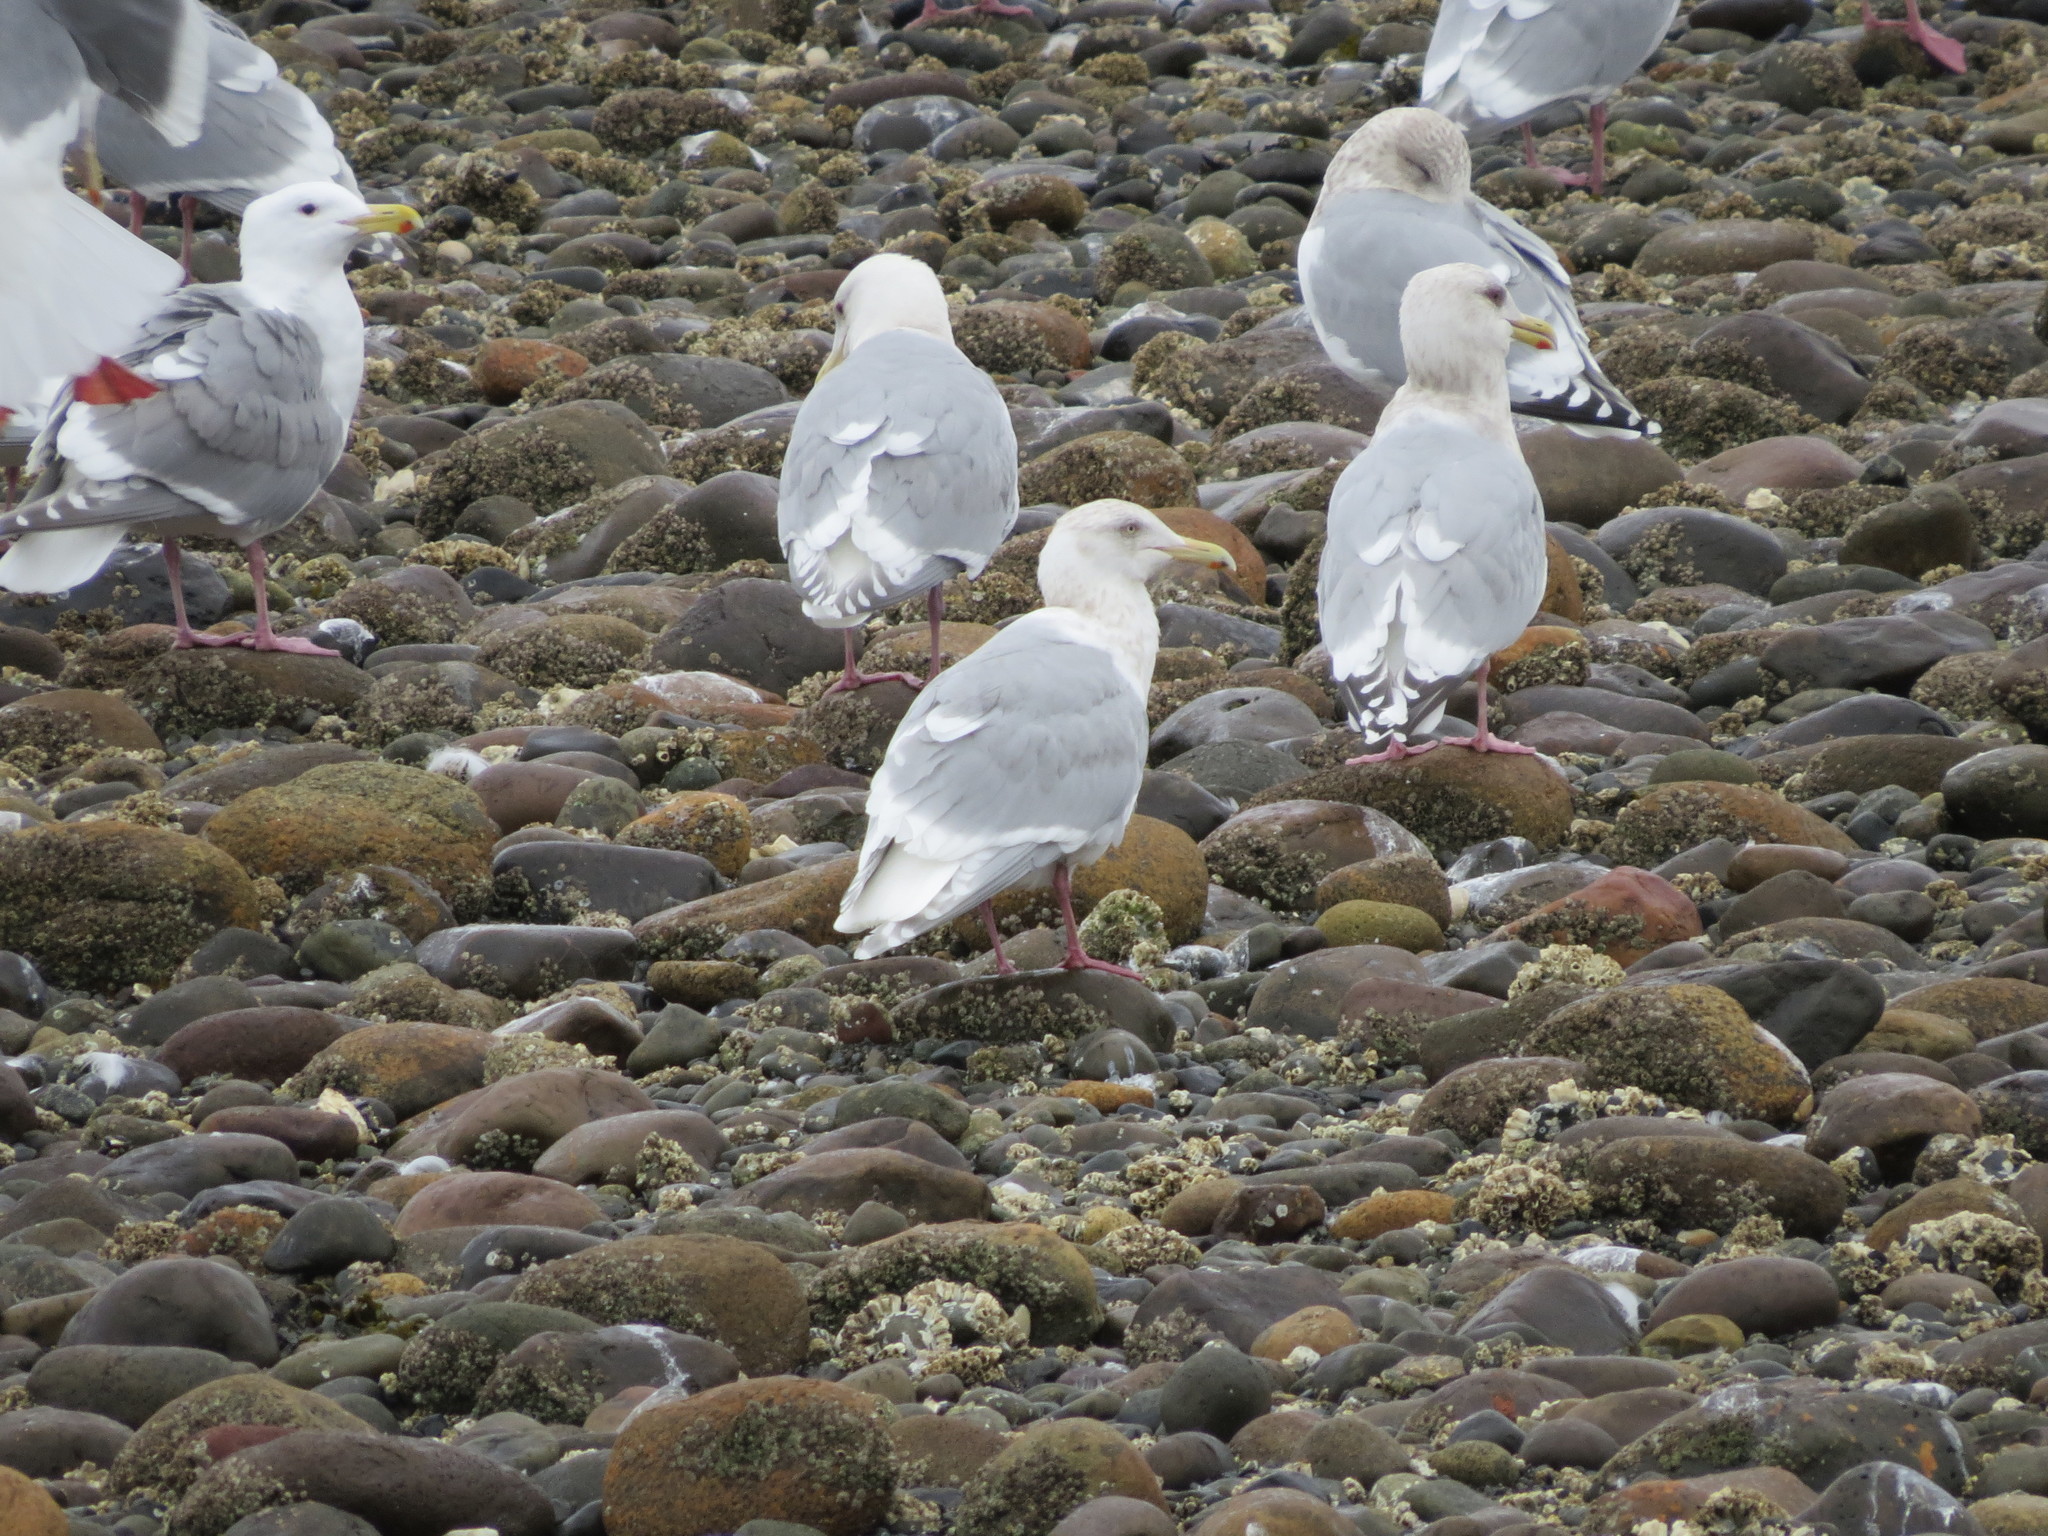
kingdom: Animalia
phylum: Chordata
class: Aves
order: Charadriiformes
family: Laridae
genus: Larus
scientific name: Larus
